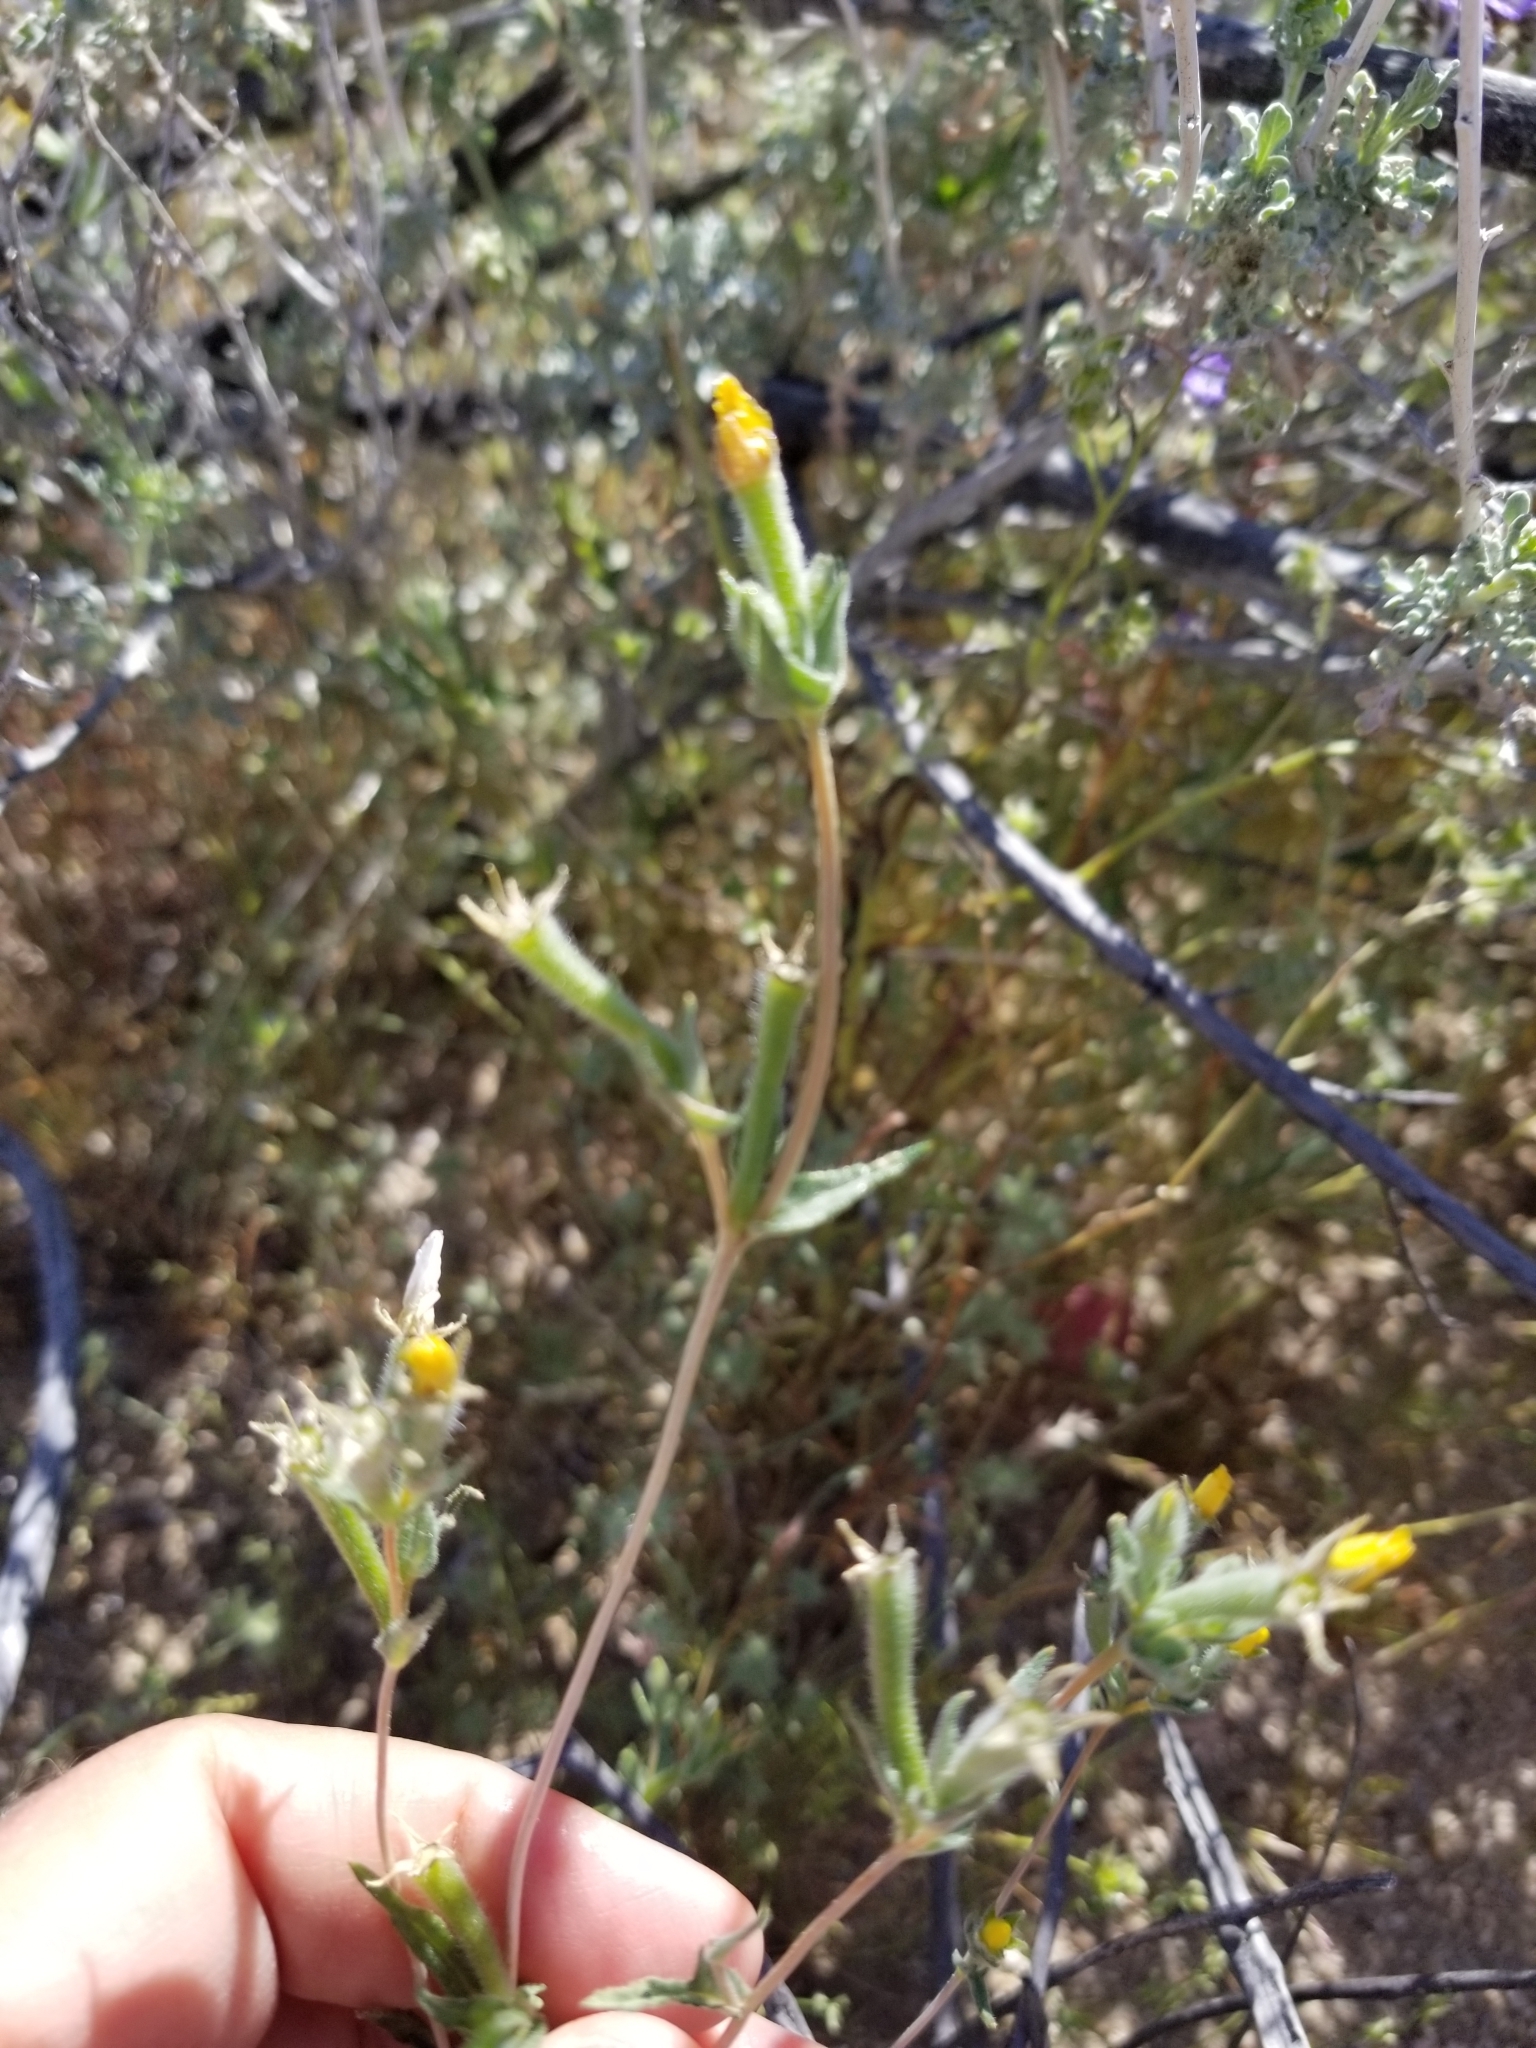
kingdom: Plantae
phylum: Tracheophyta
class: Magnoliopsida
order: Cornales
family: Loasaceae
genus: Mentzelia
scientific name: Mentzelia albicaulis
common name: White-stem blazingstar
